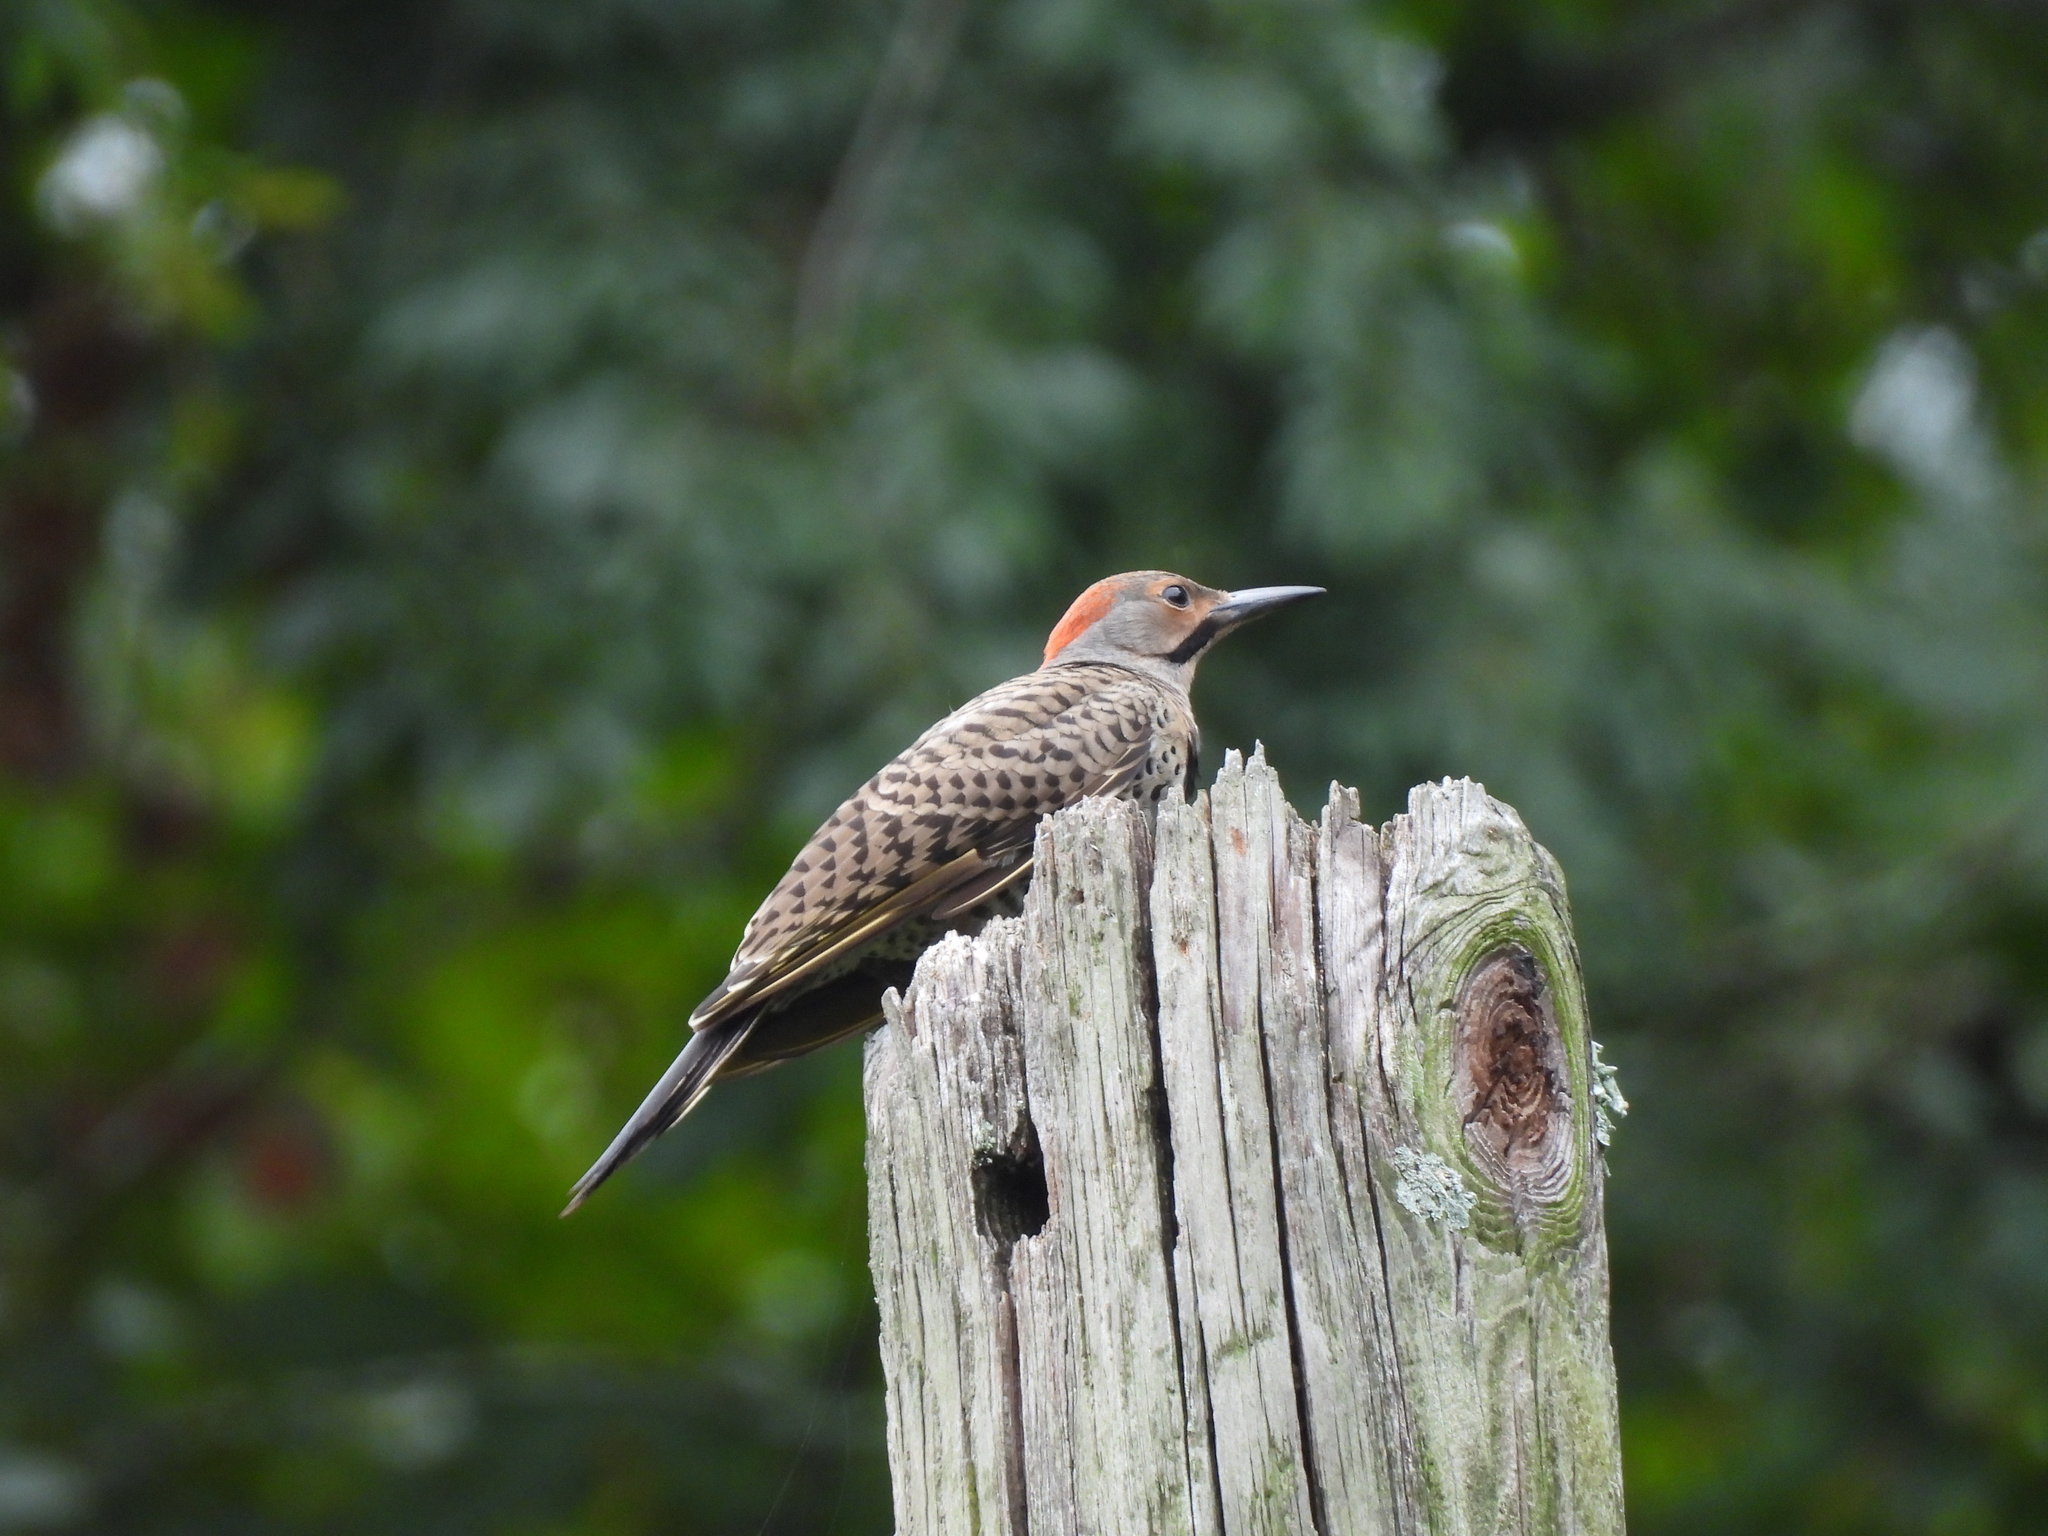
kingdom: Animalia
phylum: Chordata
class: Aves
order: Piciformes
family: Picidae
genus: Colaptes
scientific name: Colaptes auratus
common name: Northern flicker
